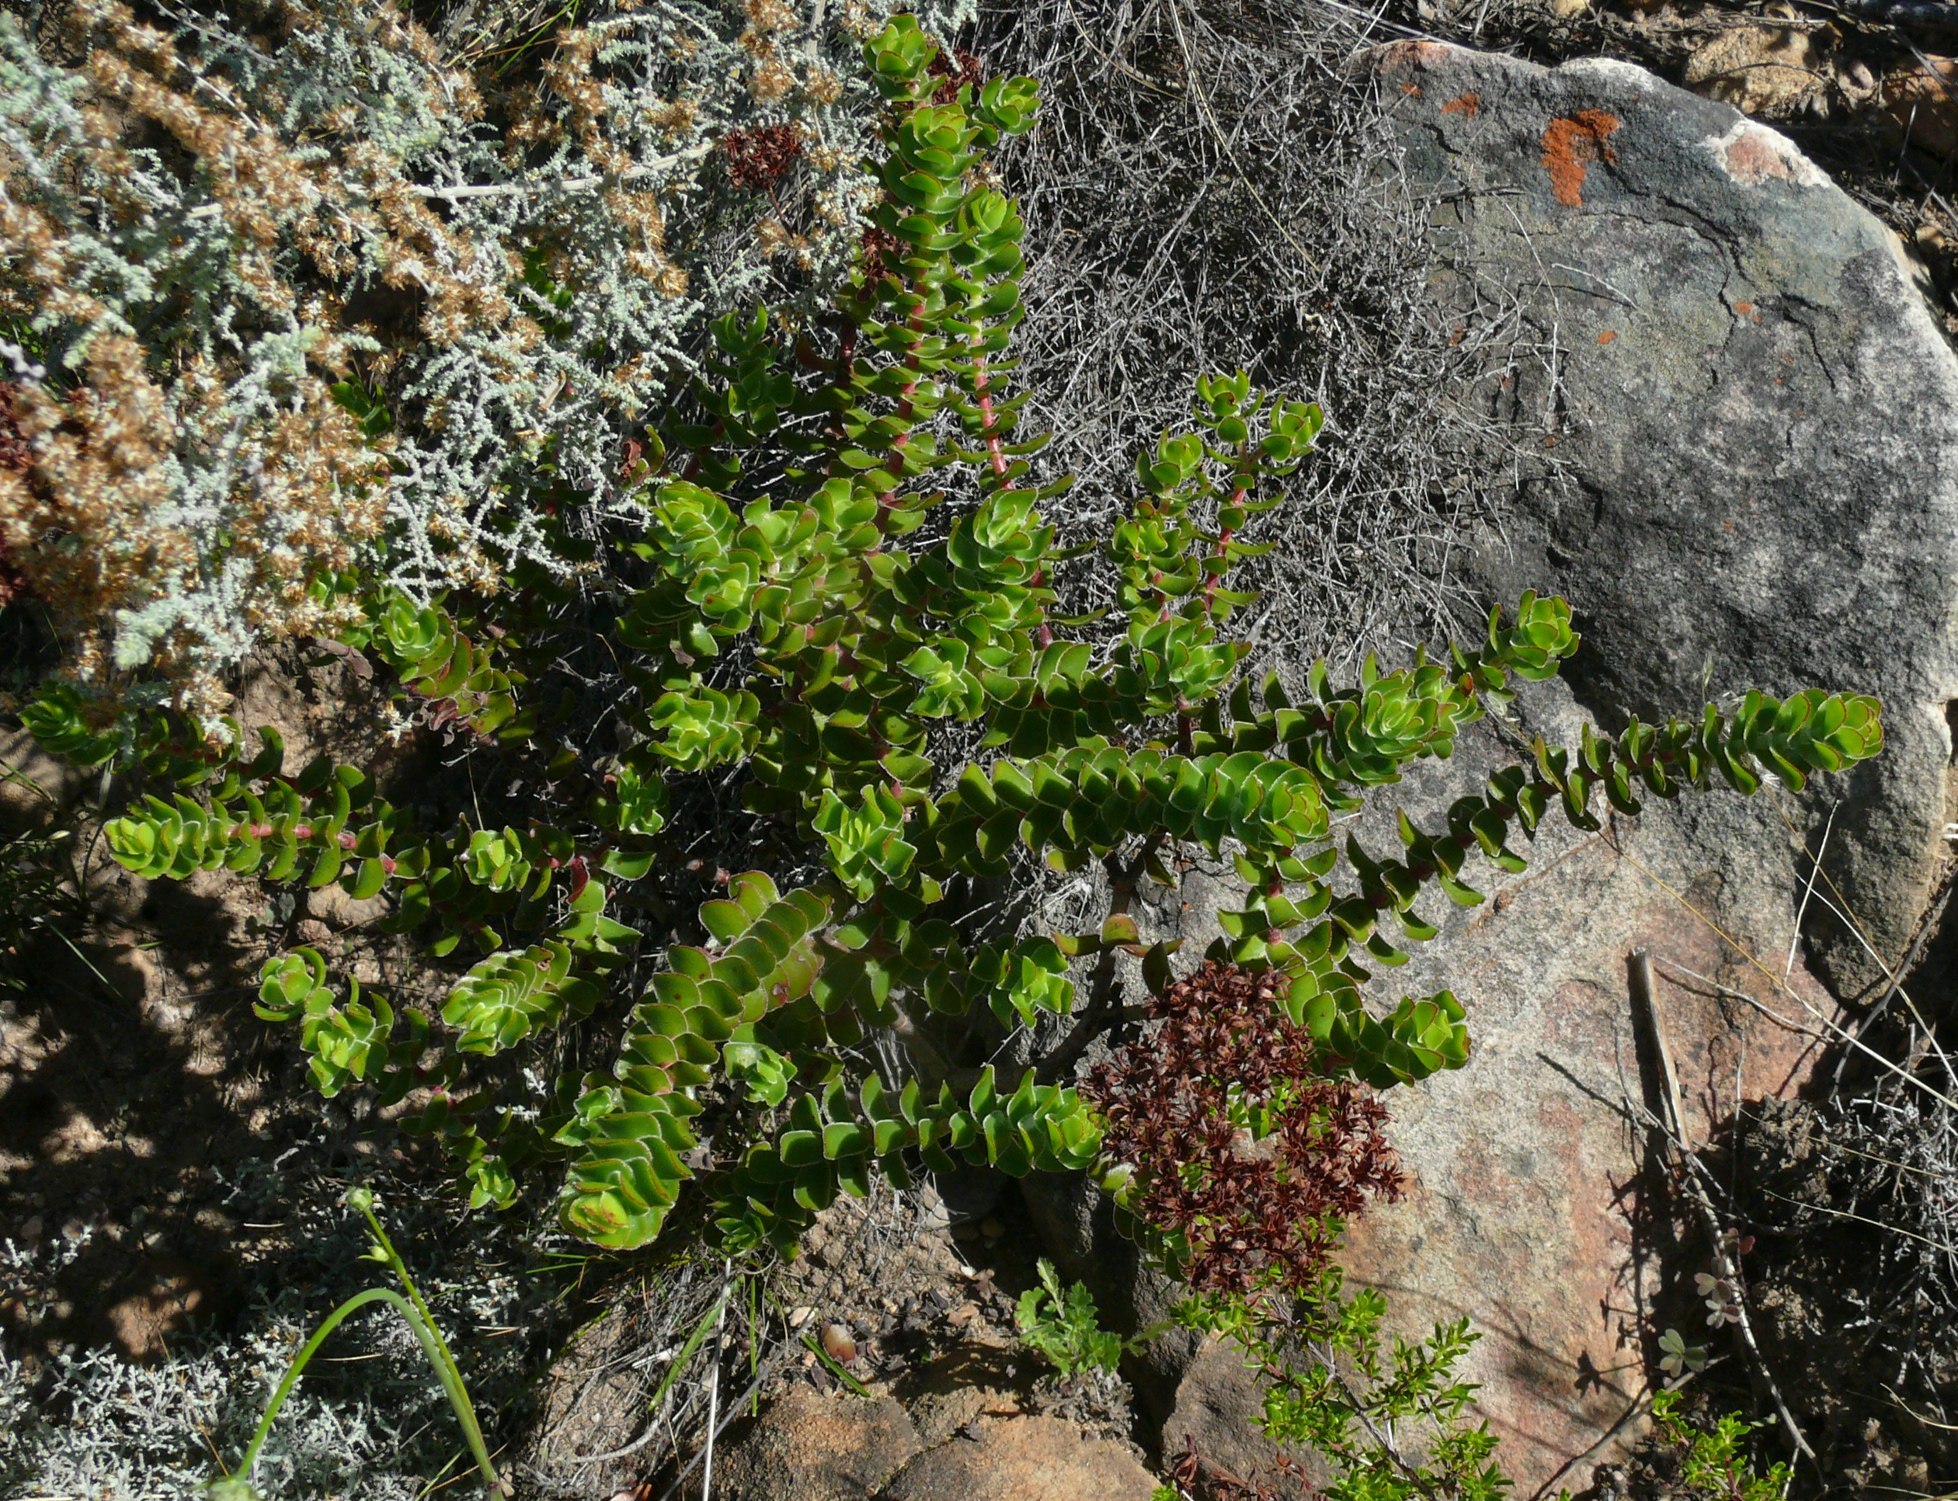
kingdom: Plantae
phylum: Tracheophyta
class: Magnoliopsida
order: Saxifragales
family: Crassulaceae
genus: Crassula
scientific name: Crassula undulata
